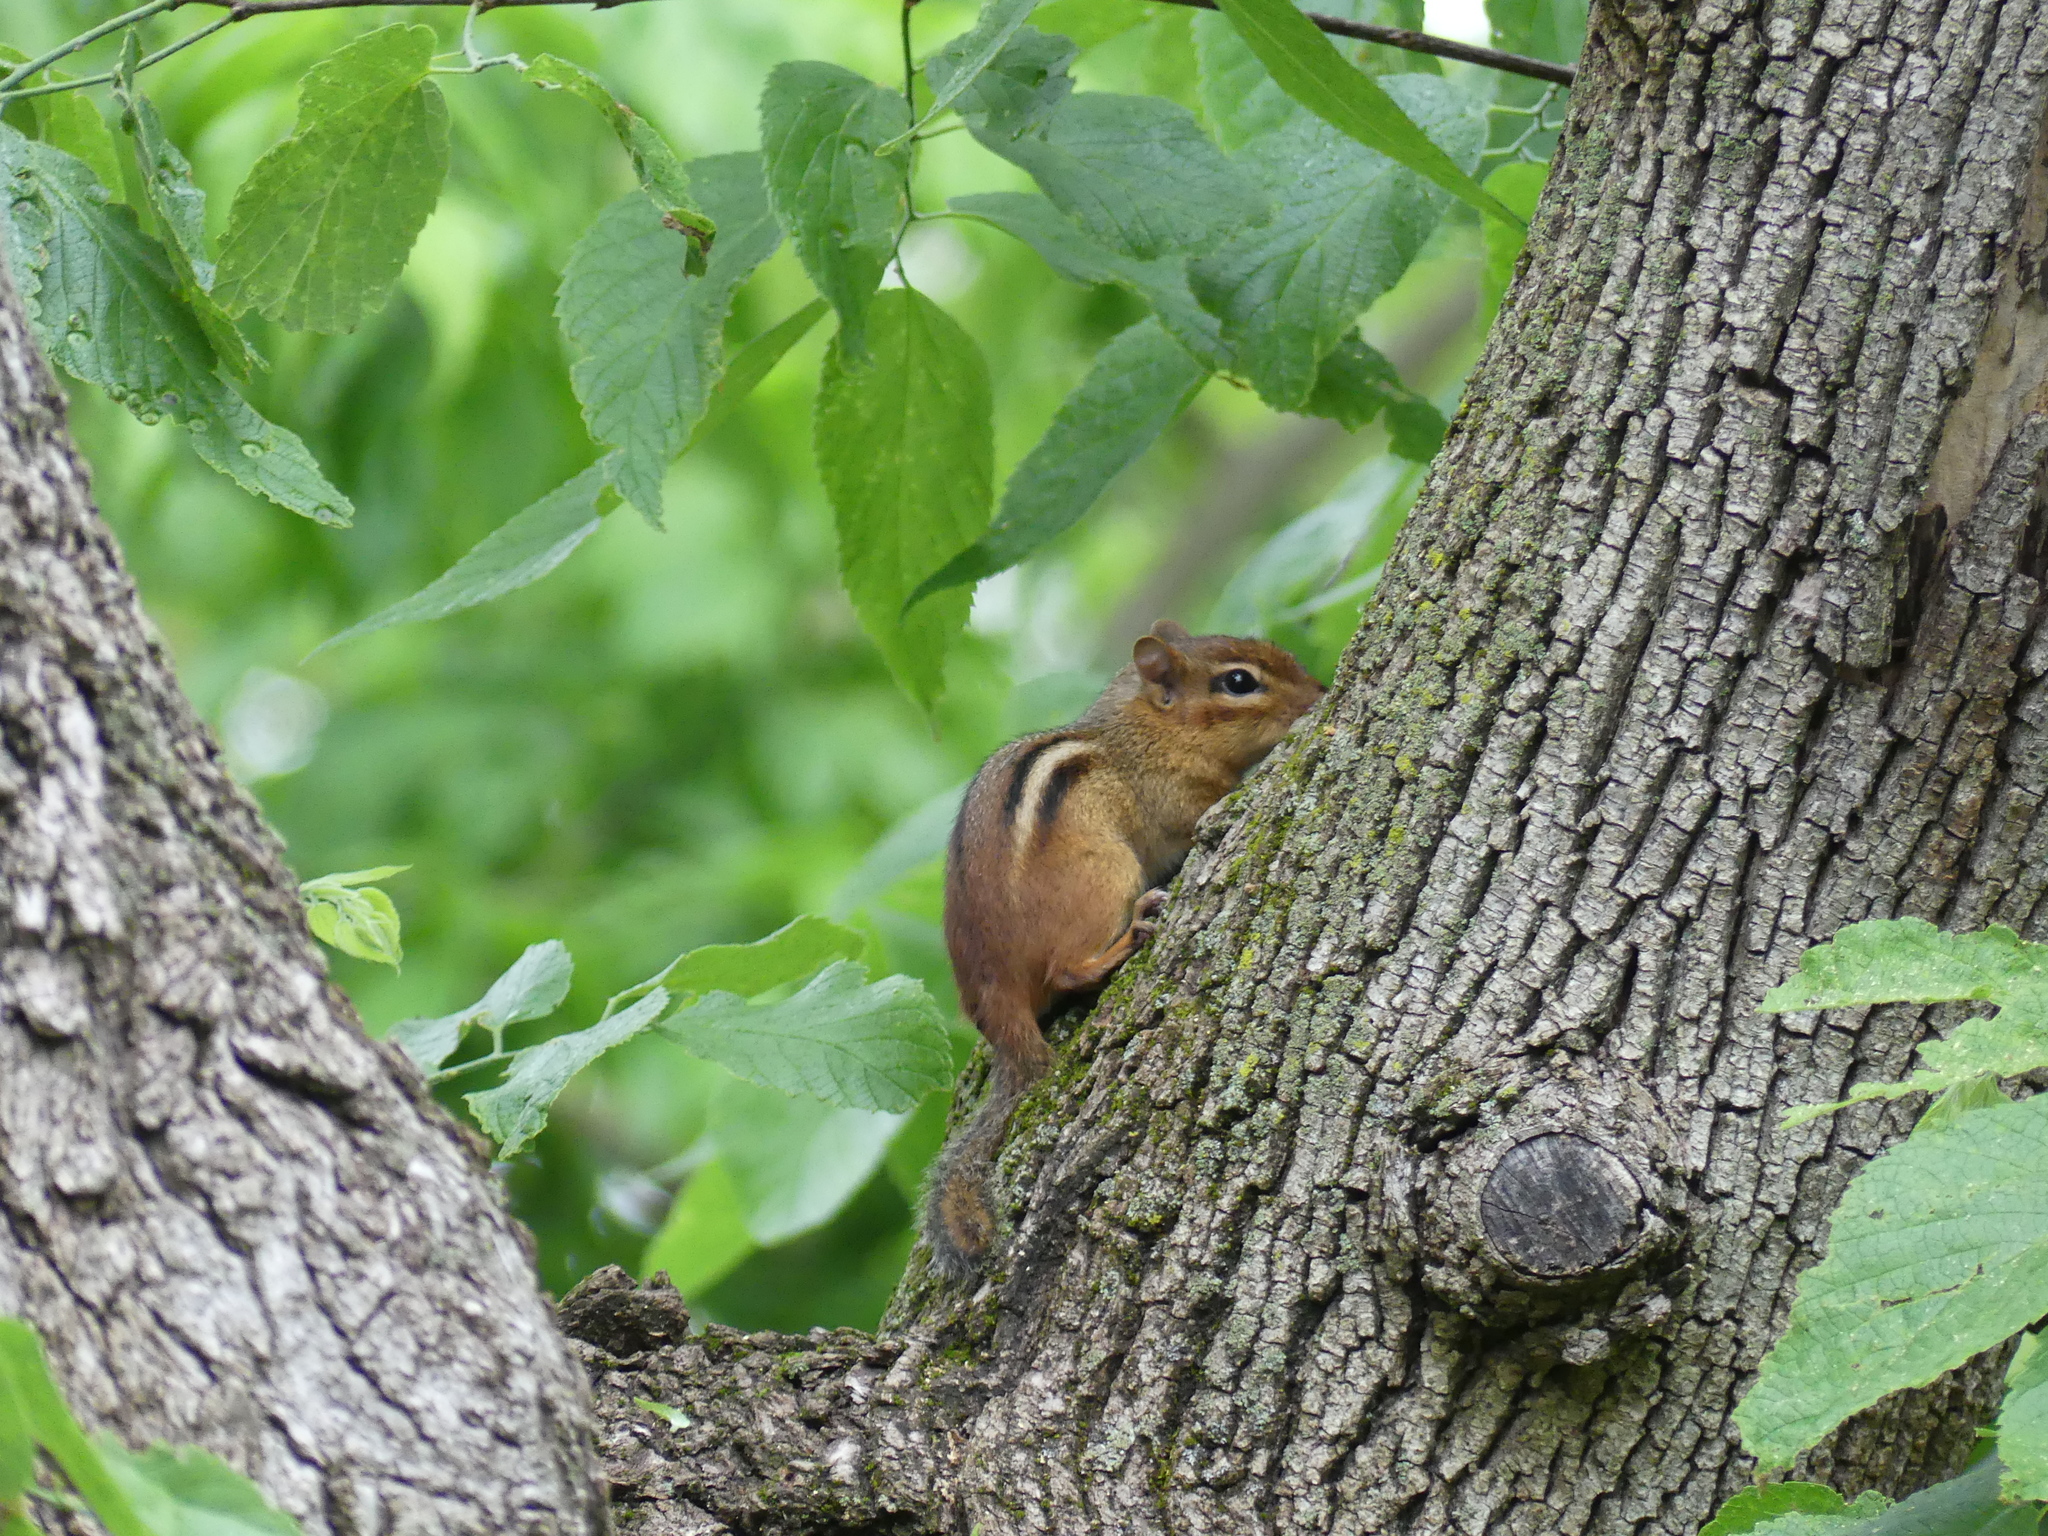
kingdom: Animalia
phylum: Chordata
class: Mammalia
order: Rodentia
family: Sciuridae
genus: Tamias
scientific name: Tamias striatus
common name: Eastern chipmunk
